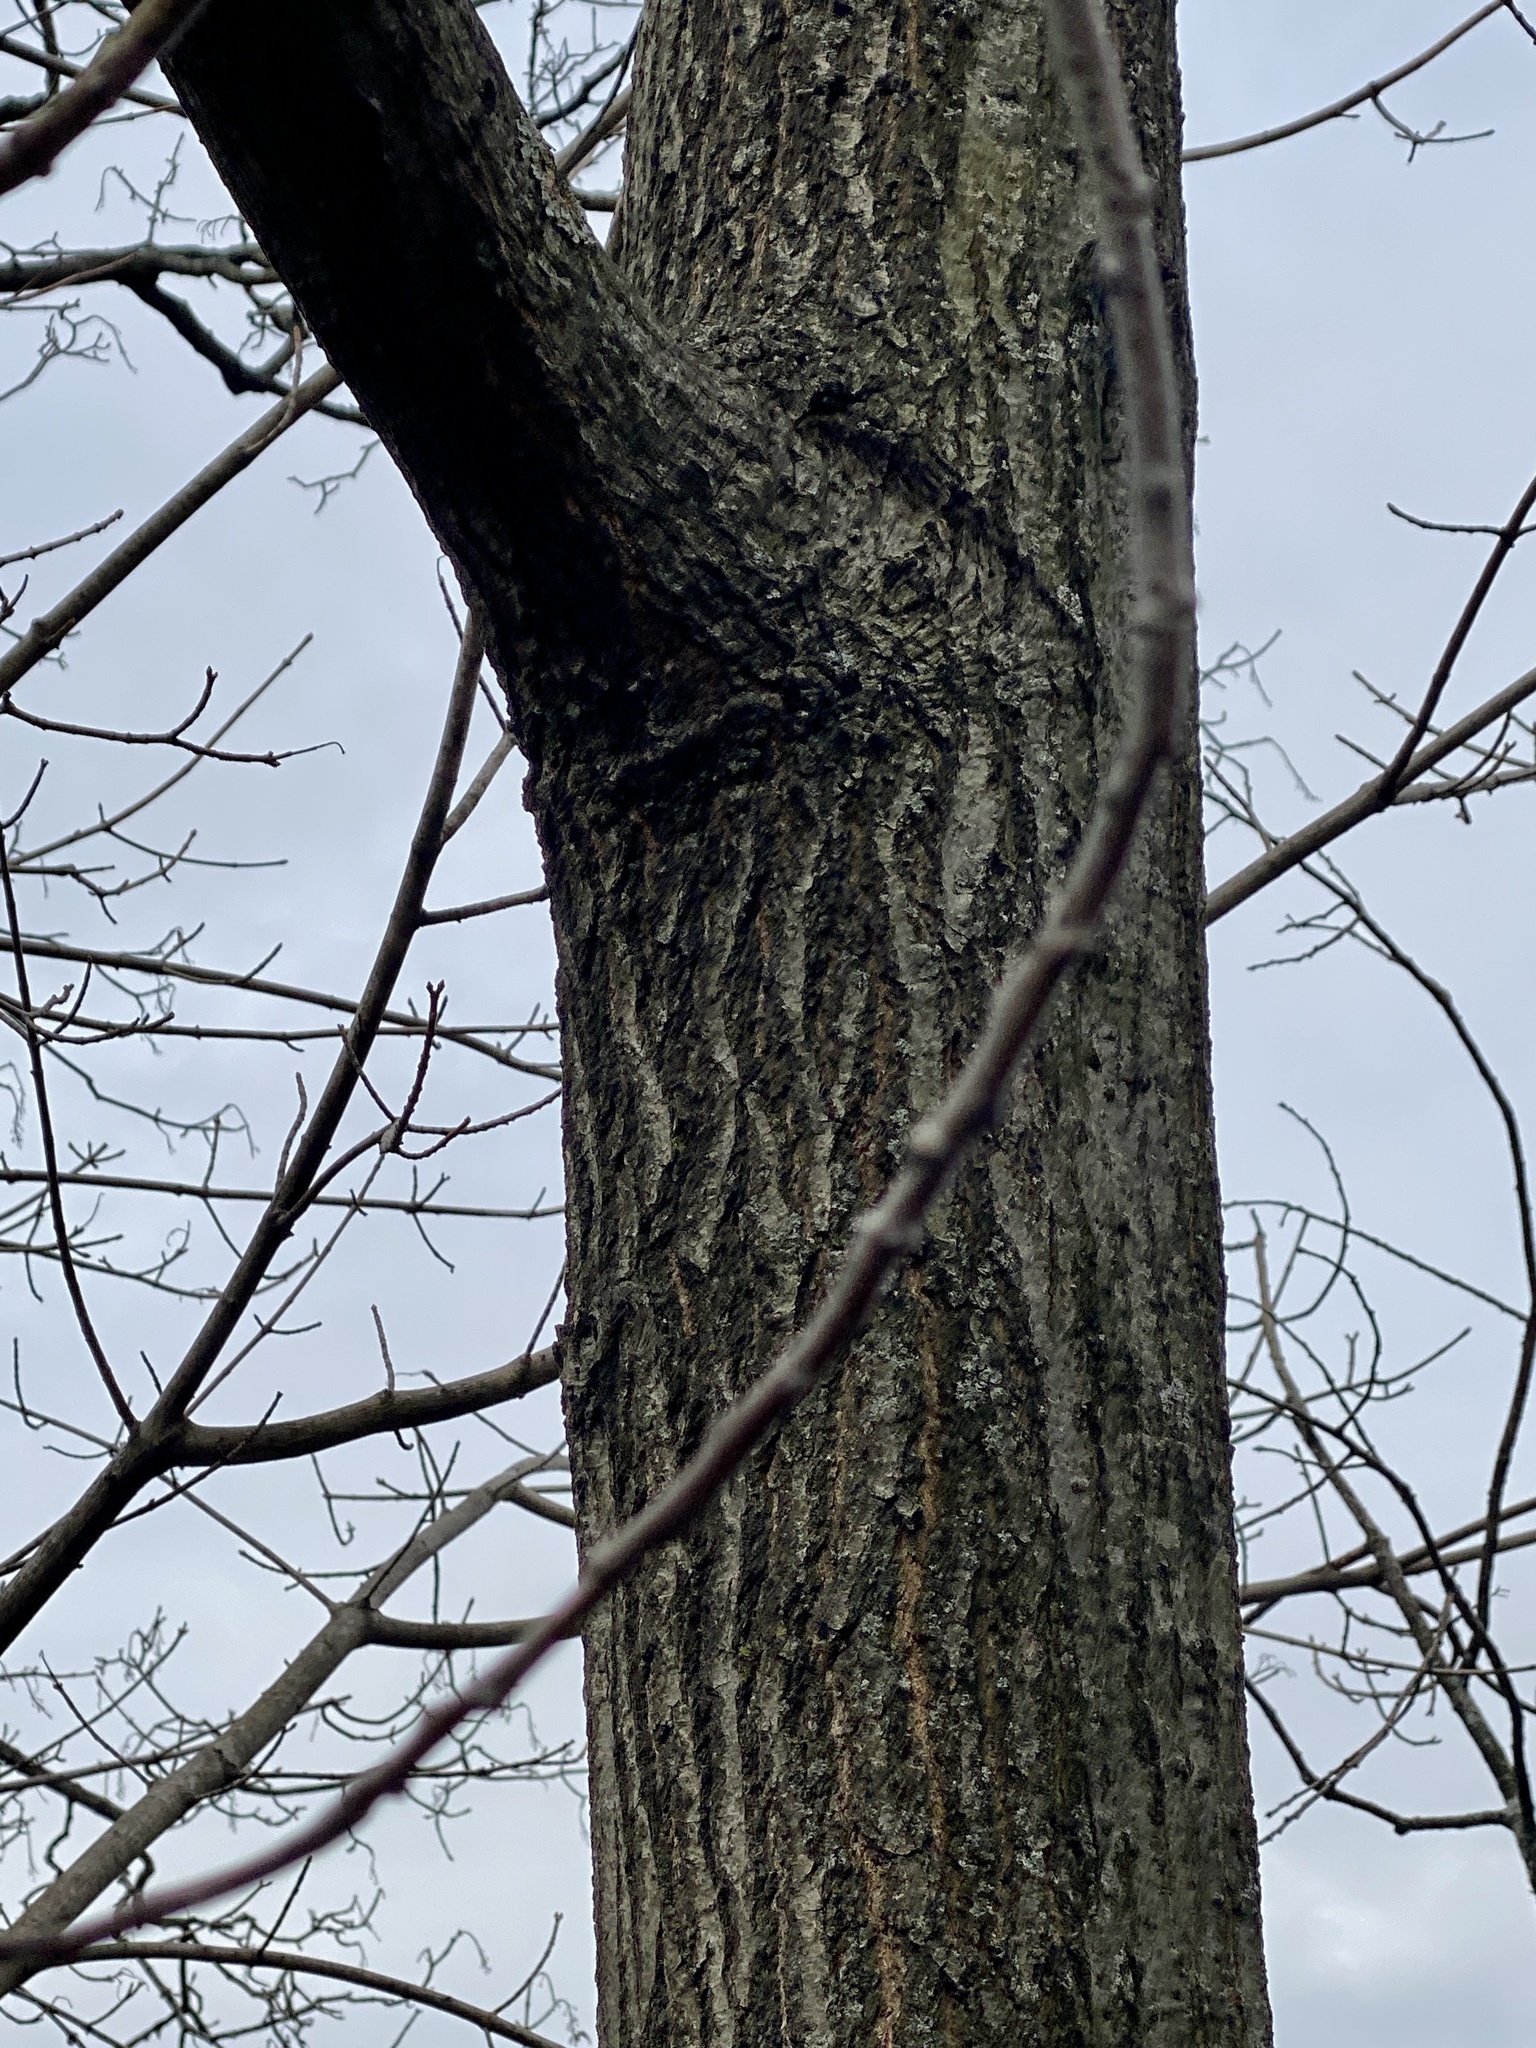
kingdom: Plantae
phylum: Tracheophyta
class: Magnoliopsida
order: Fagales
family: Fagaceae
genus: Quercus
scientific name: Quercus rubra
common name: Red oak
